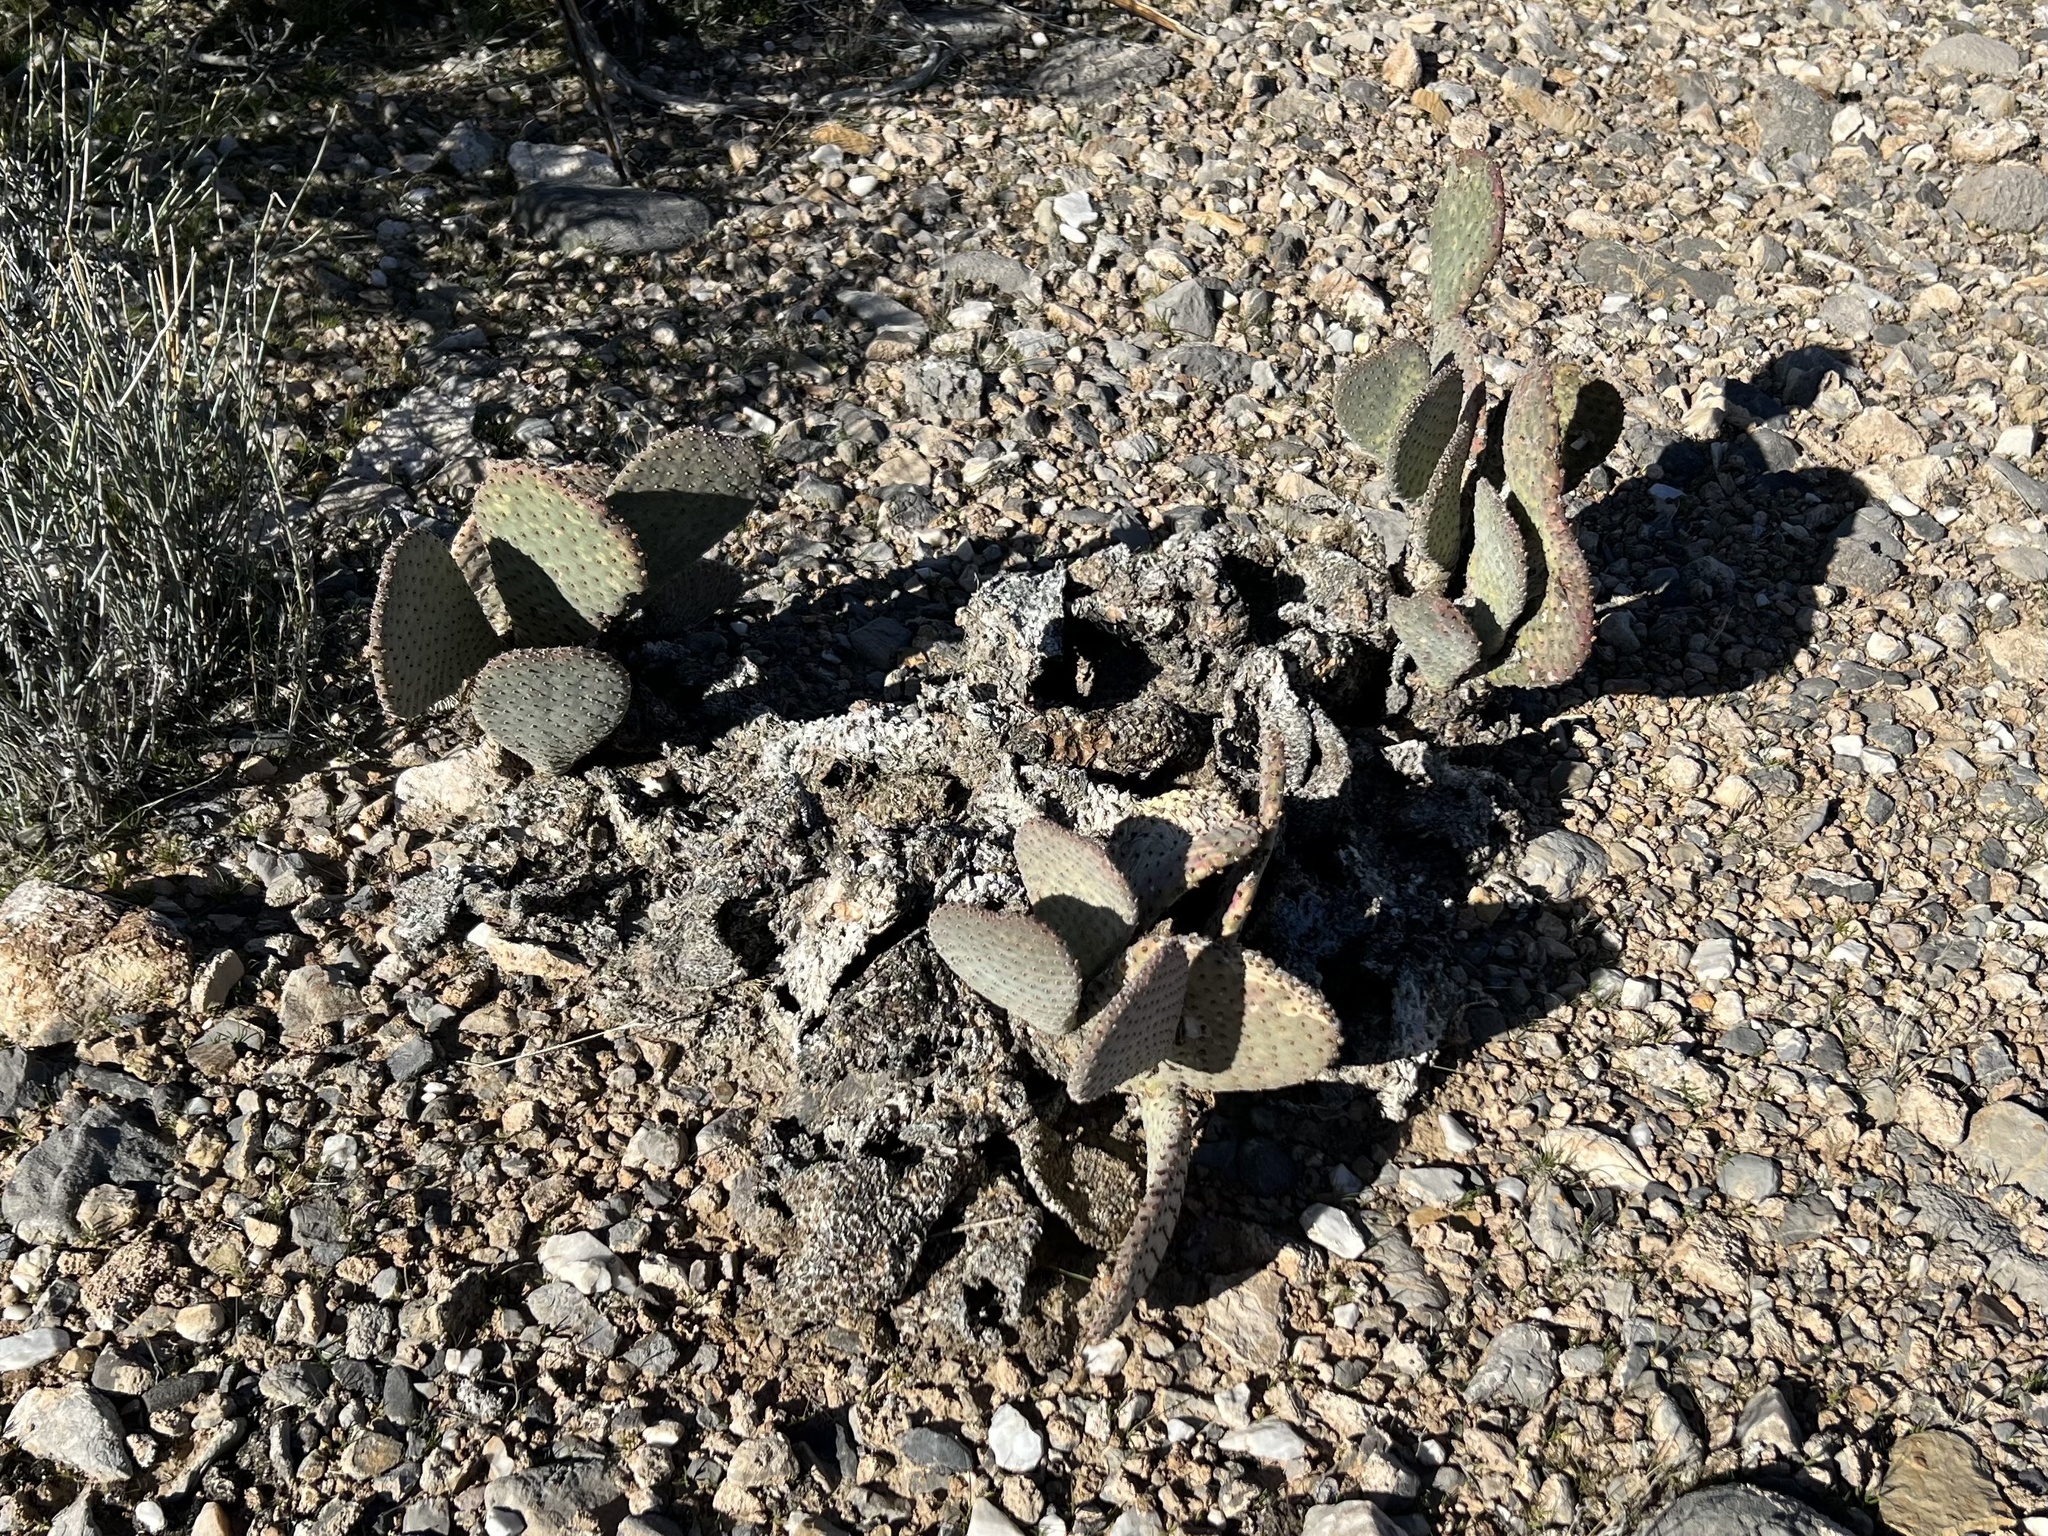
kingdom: Plantae
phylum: Tracheophyta
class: Magnoliopsida
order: Caryophyllales
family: Cactaceae
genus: Opuntia
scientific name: Opuntia basilaris
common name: Beavertail prickly-pear
